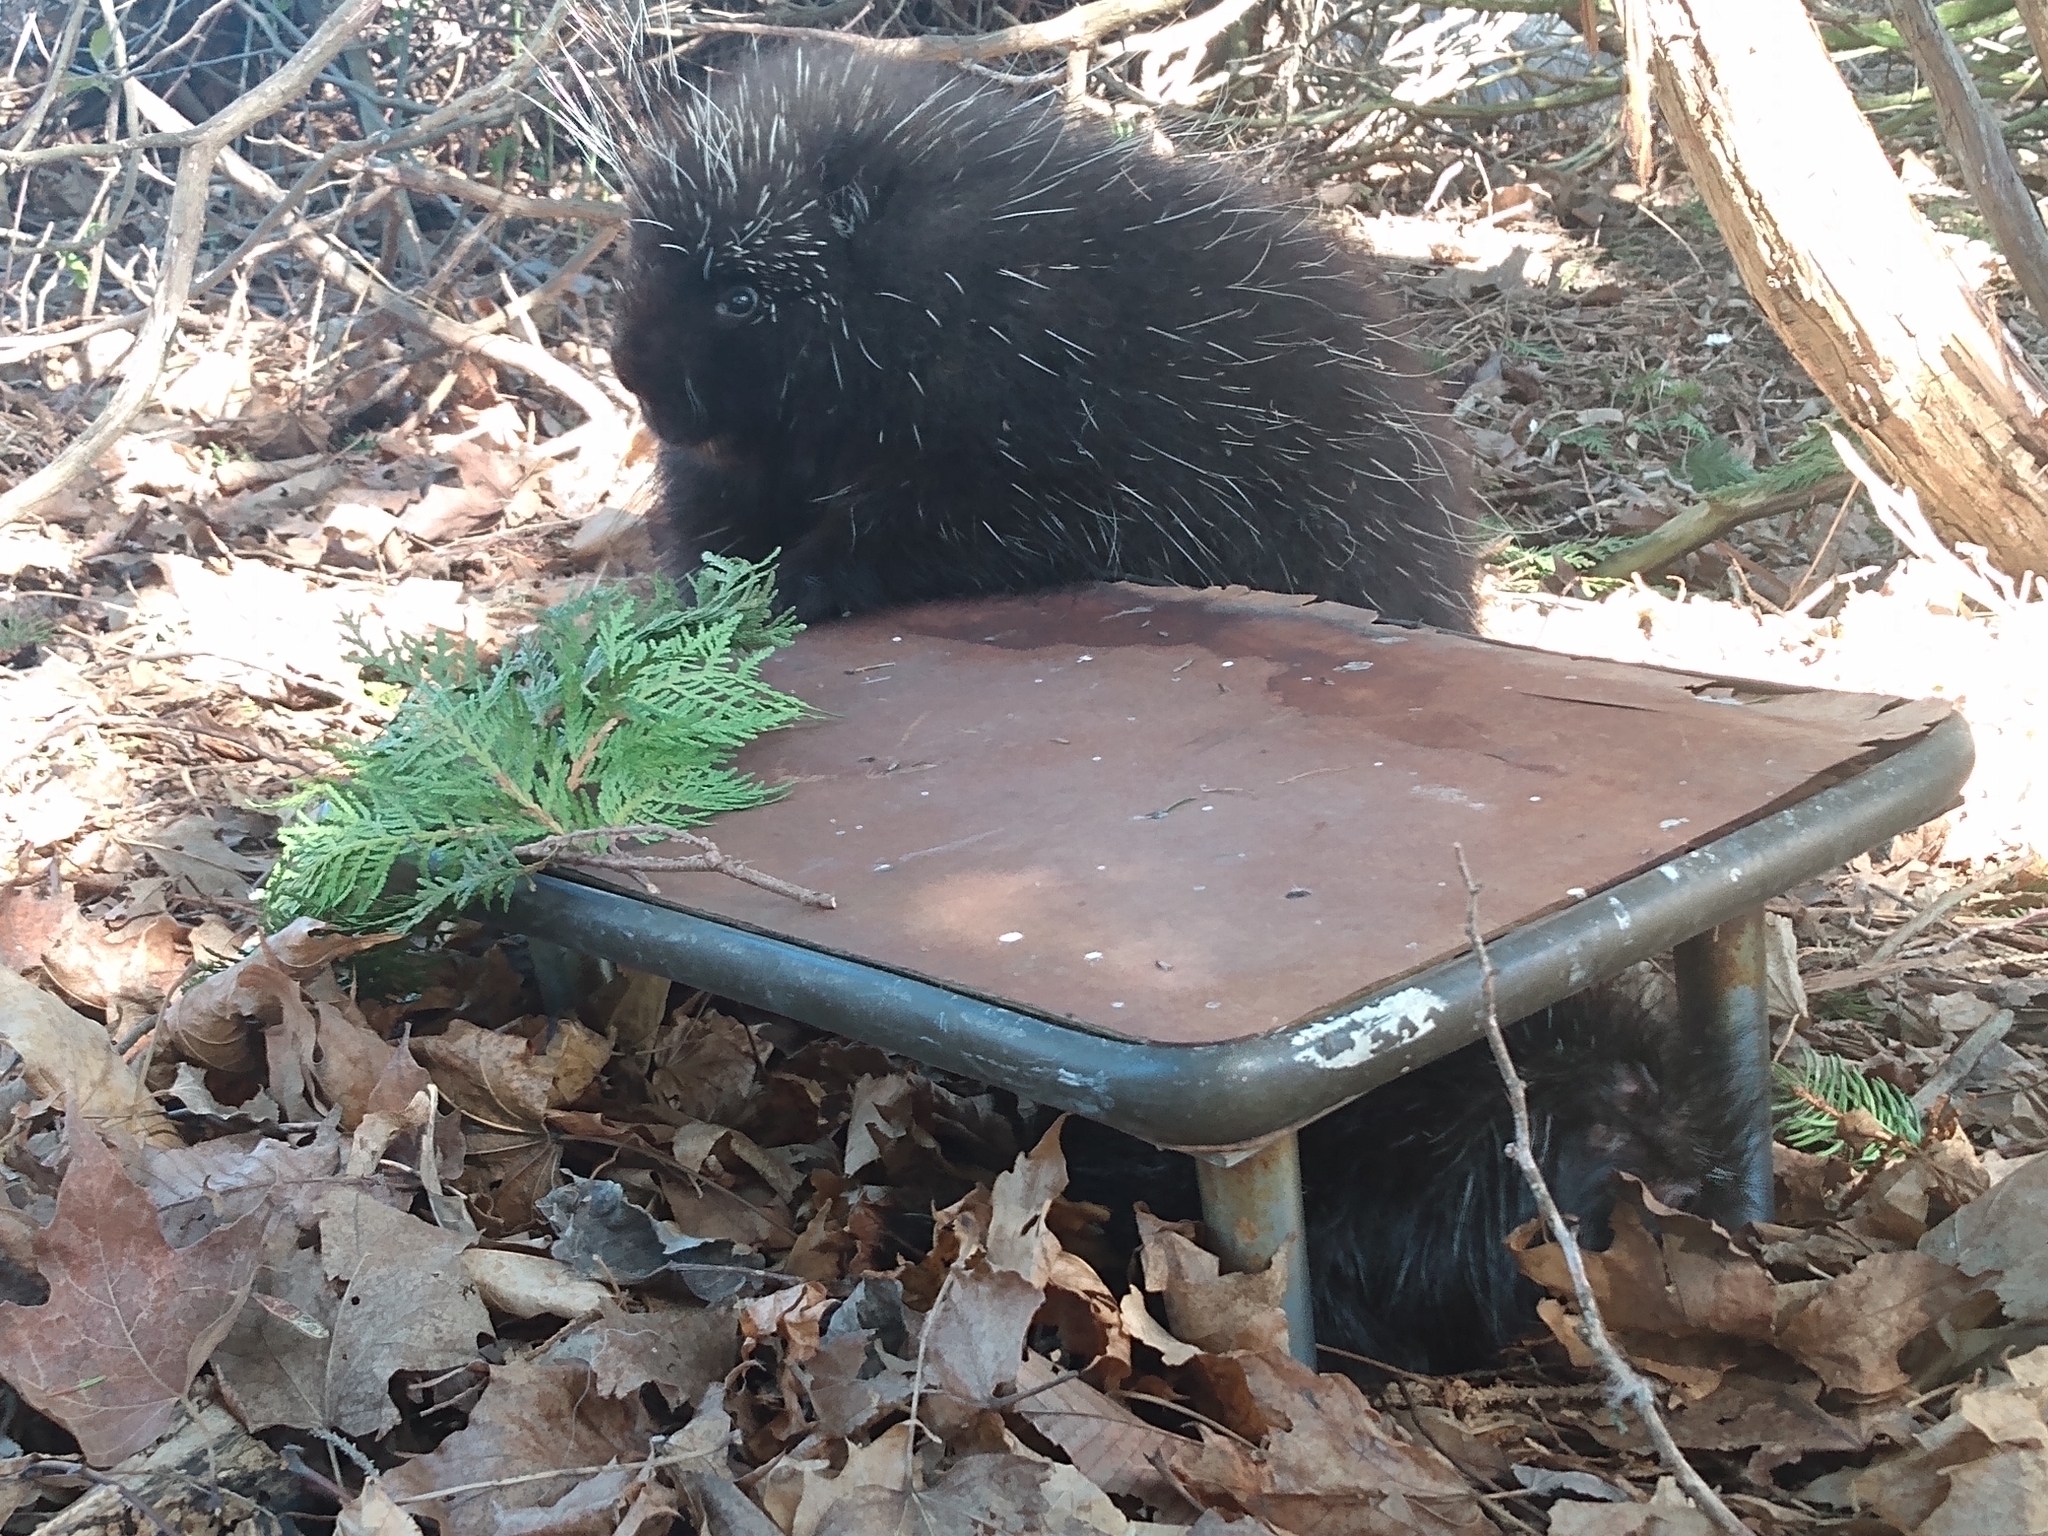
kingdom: Animalia
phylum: Chordata
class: Mammalia
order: Rodentia
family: Erethizontidae
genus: Erethizon
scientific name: Erethizon dorsatus
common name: North american porcupine
